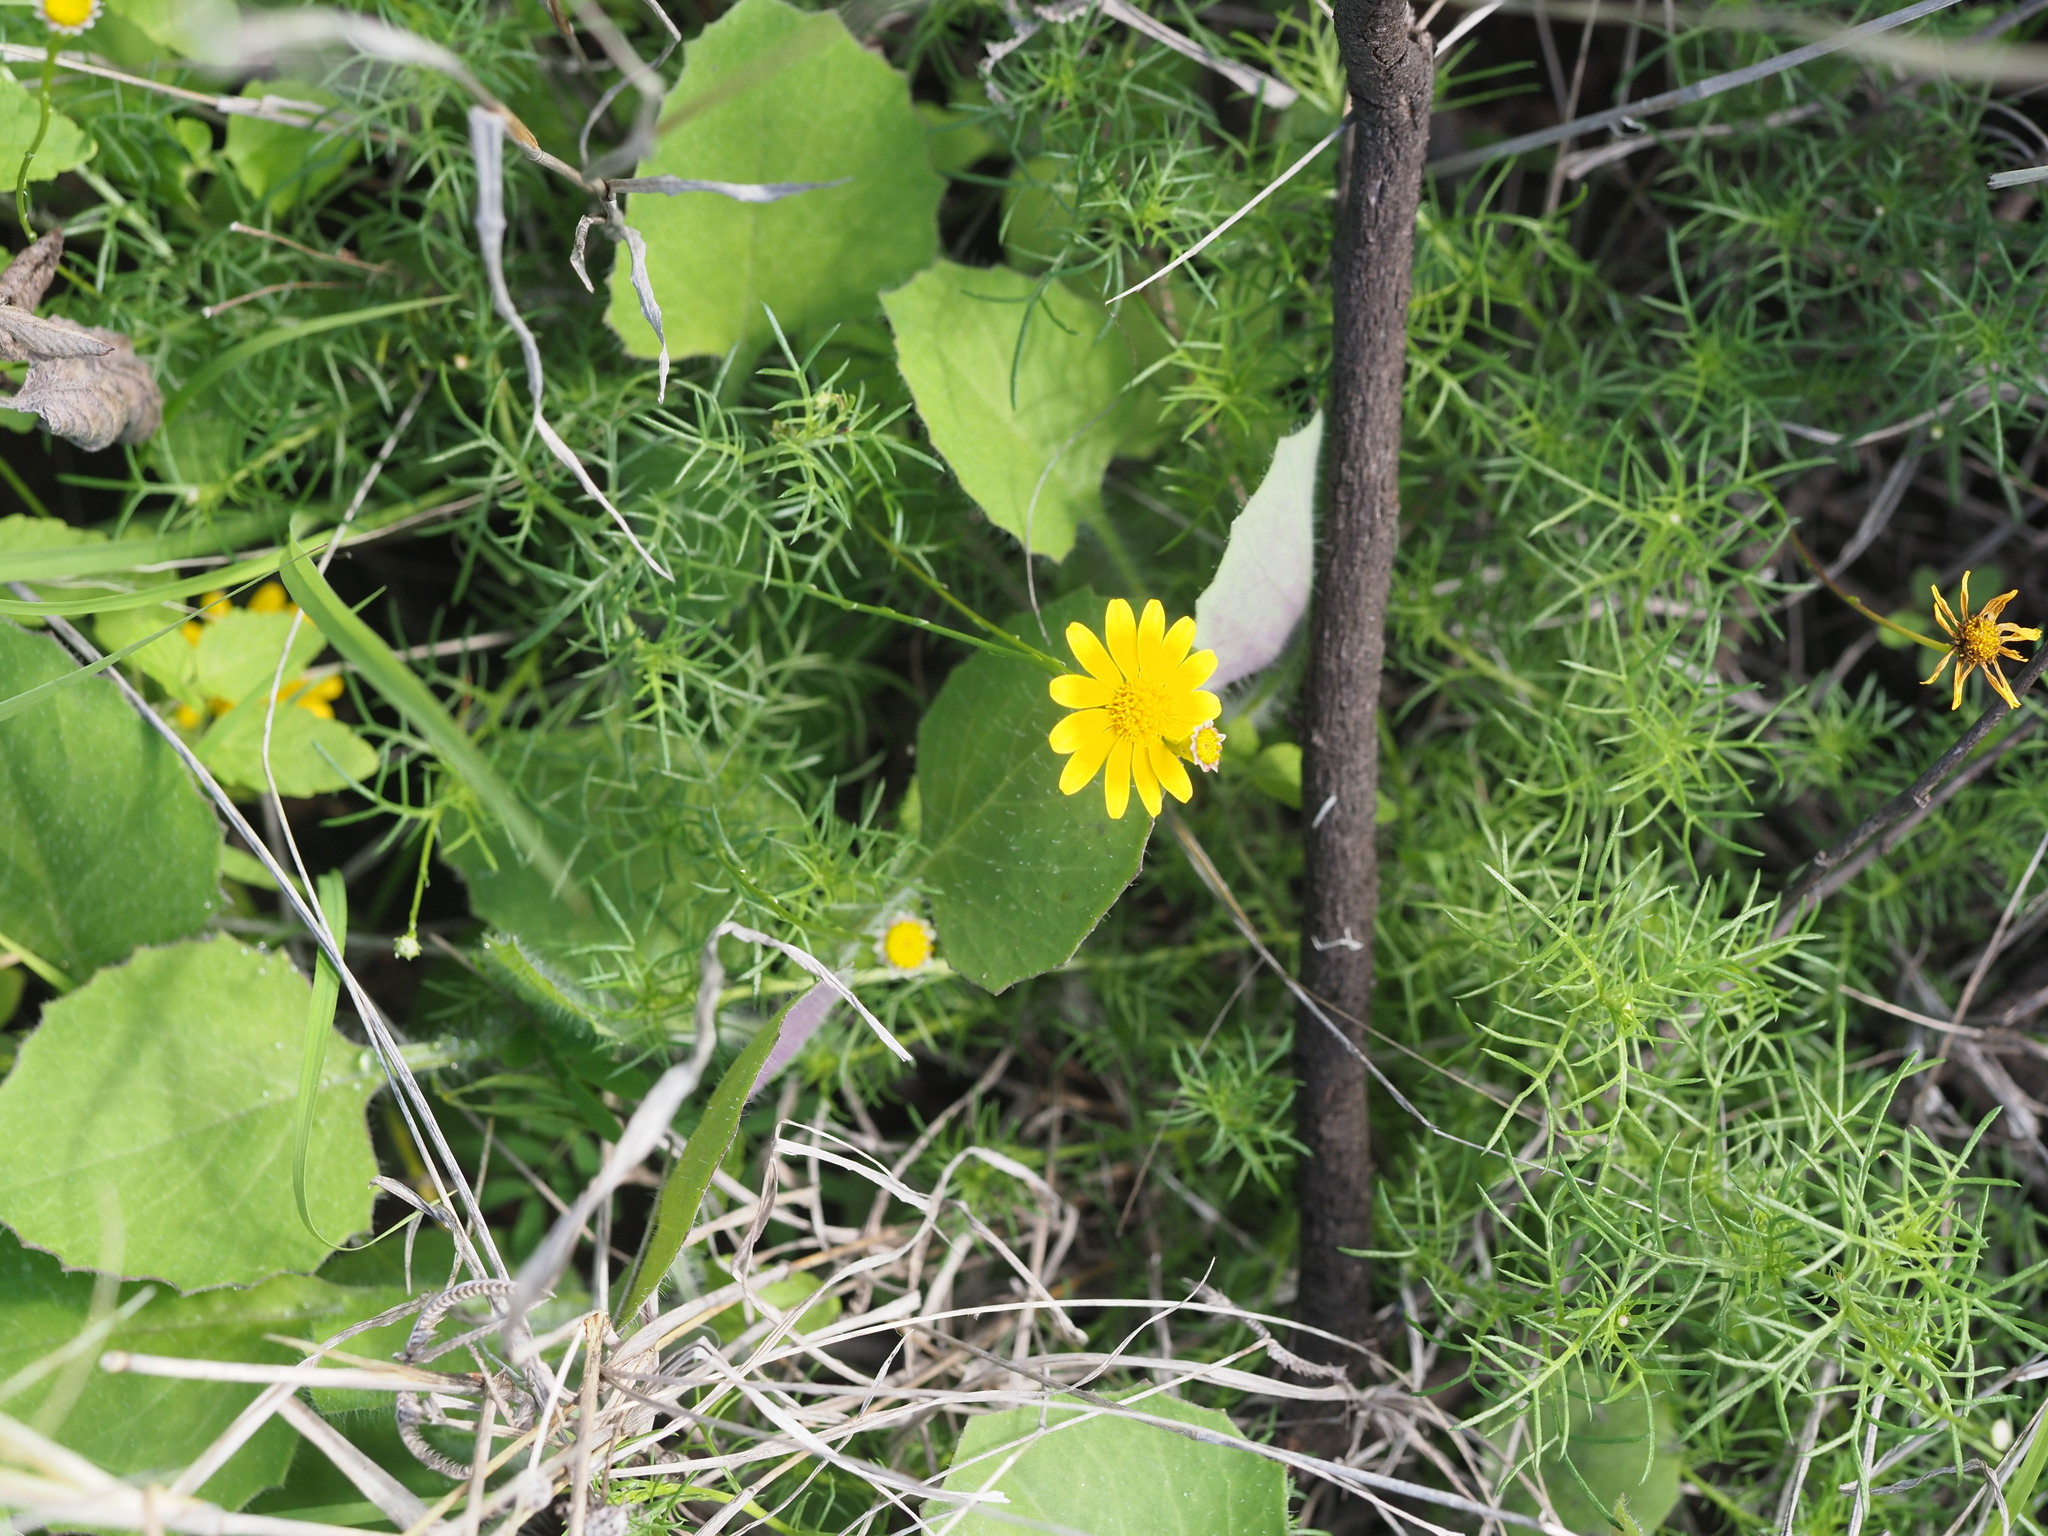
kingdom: Plantae
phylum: Tracheophyta
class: Magnoliopsida
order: Asterales
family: Asteraceae
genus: Thymophylla
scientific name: Thymophylla tenuiloba
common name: Dahlberg's daisy
